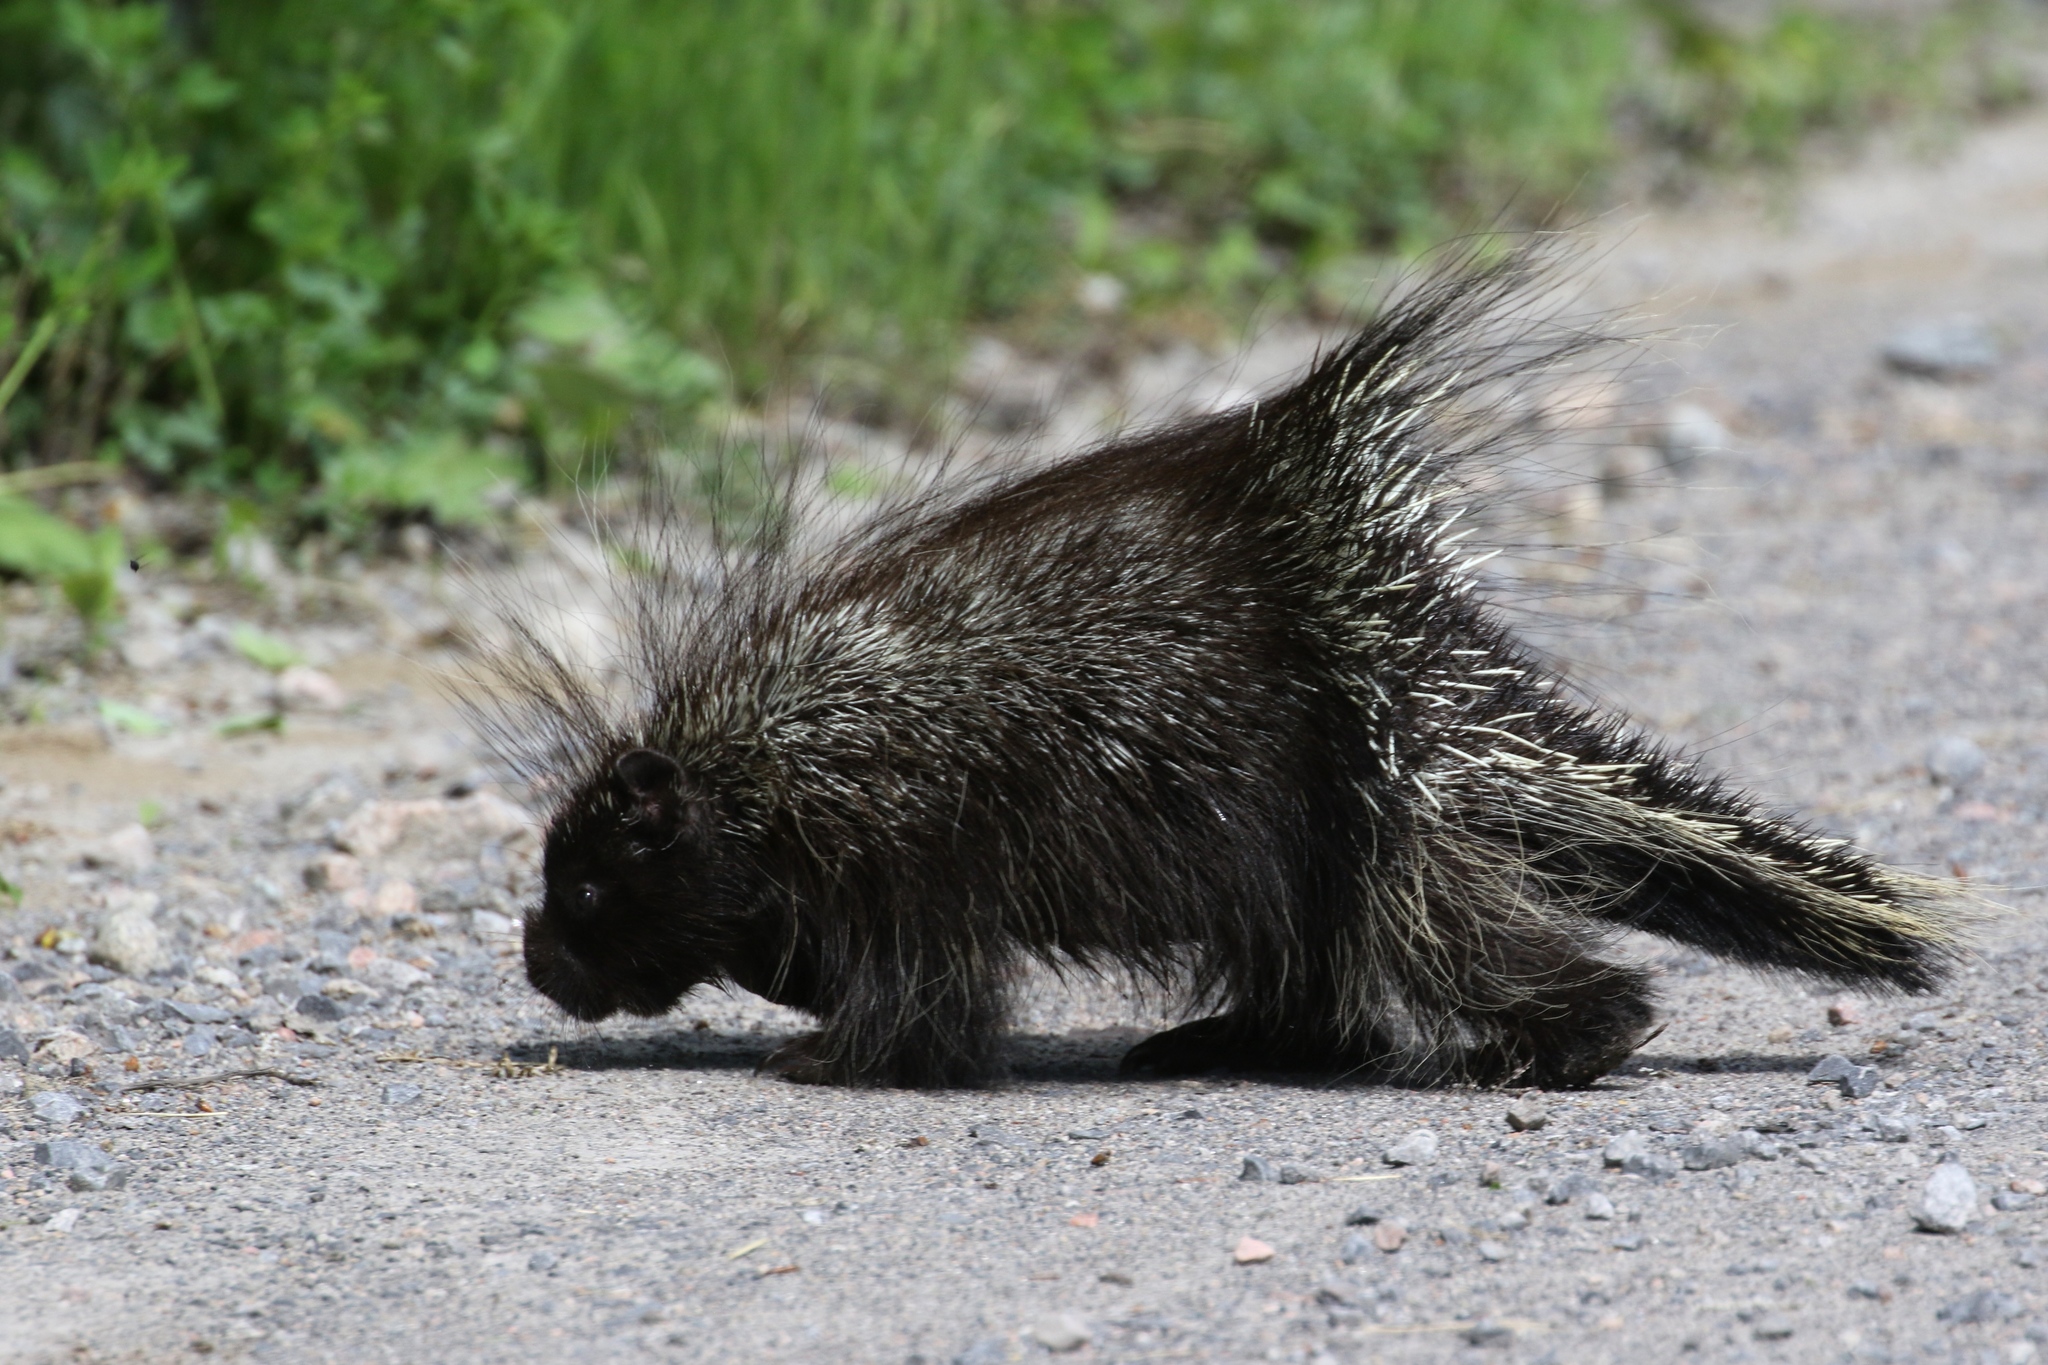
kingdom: Animalia
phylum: Chordata
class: Mammalia
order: Rodentia
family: Erethizontidae
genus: Erethizon
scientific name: Erethizon dorsatus
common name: North american porcupine
